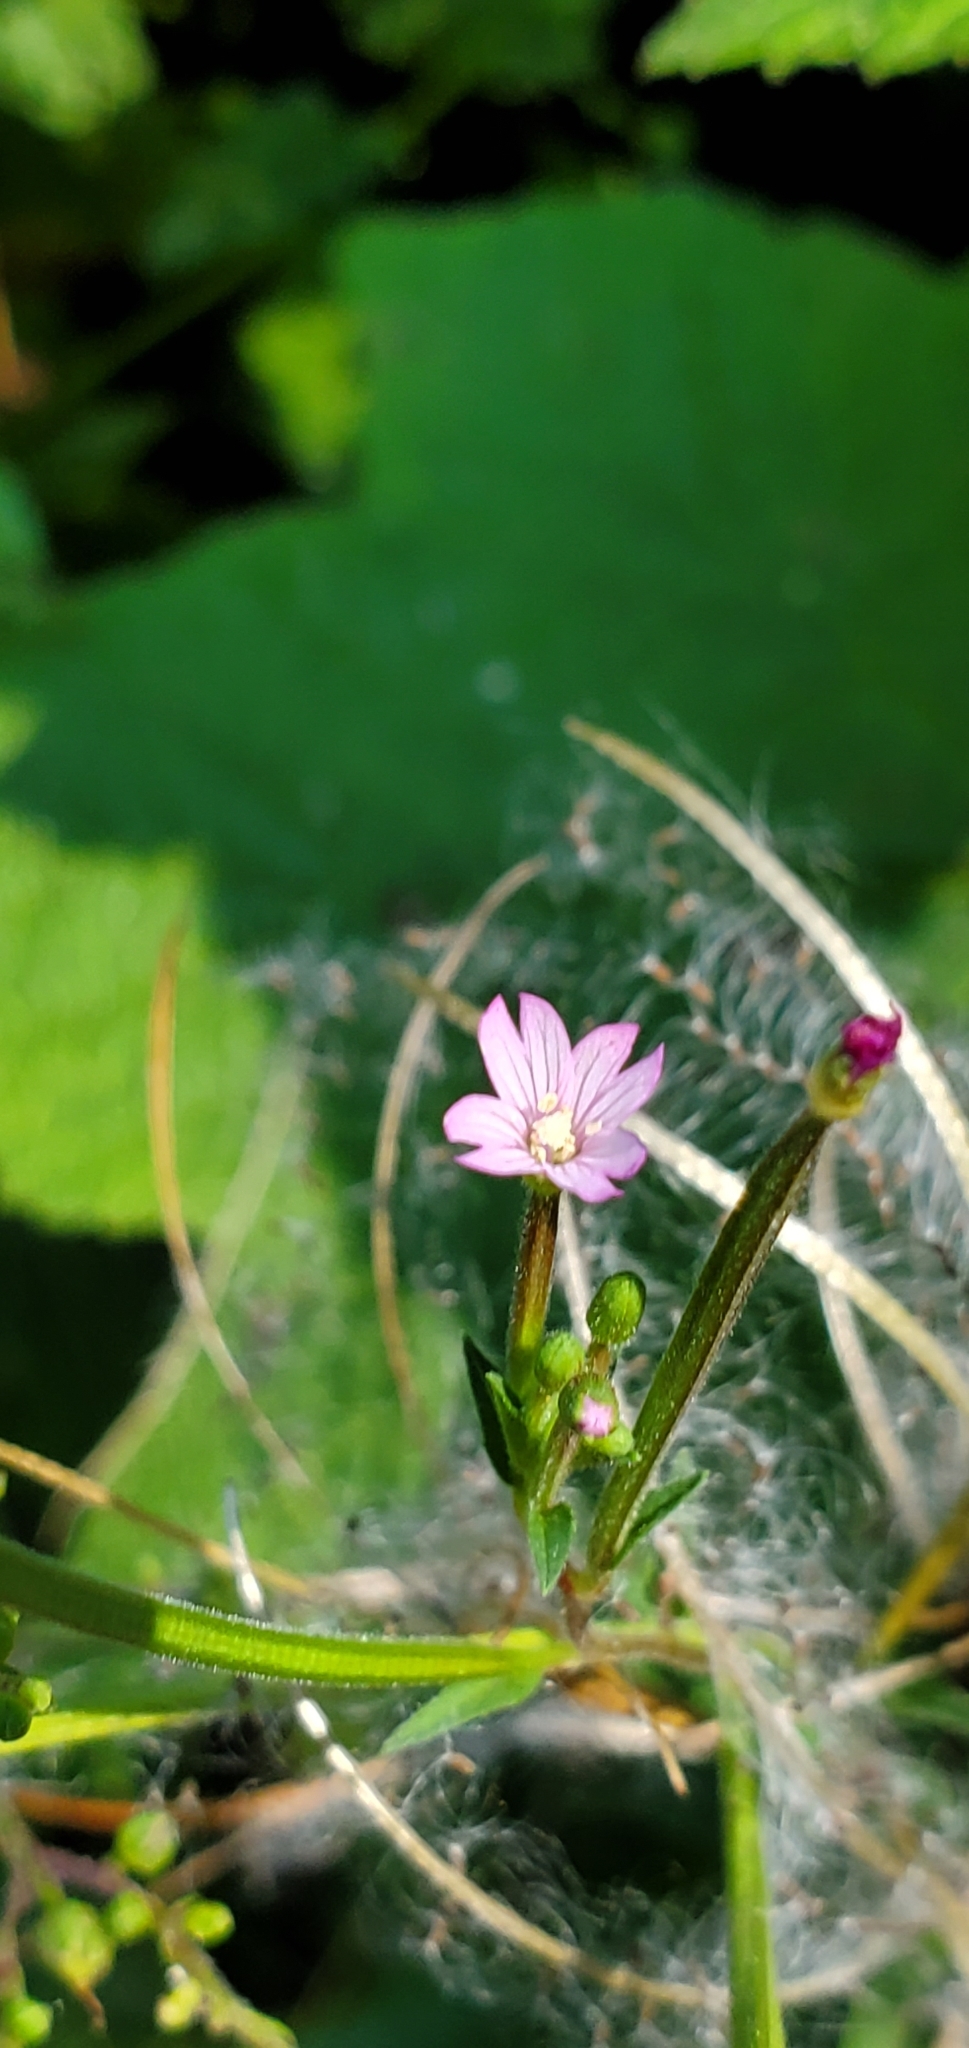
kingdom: Plantae
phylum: Tracheophyta
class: Magnoliopsida
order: Myrtales
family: Onagraceae
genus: Epilobium
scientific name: Epilobium ciliatum
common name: American willowherb
